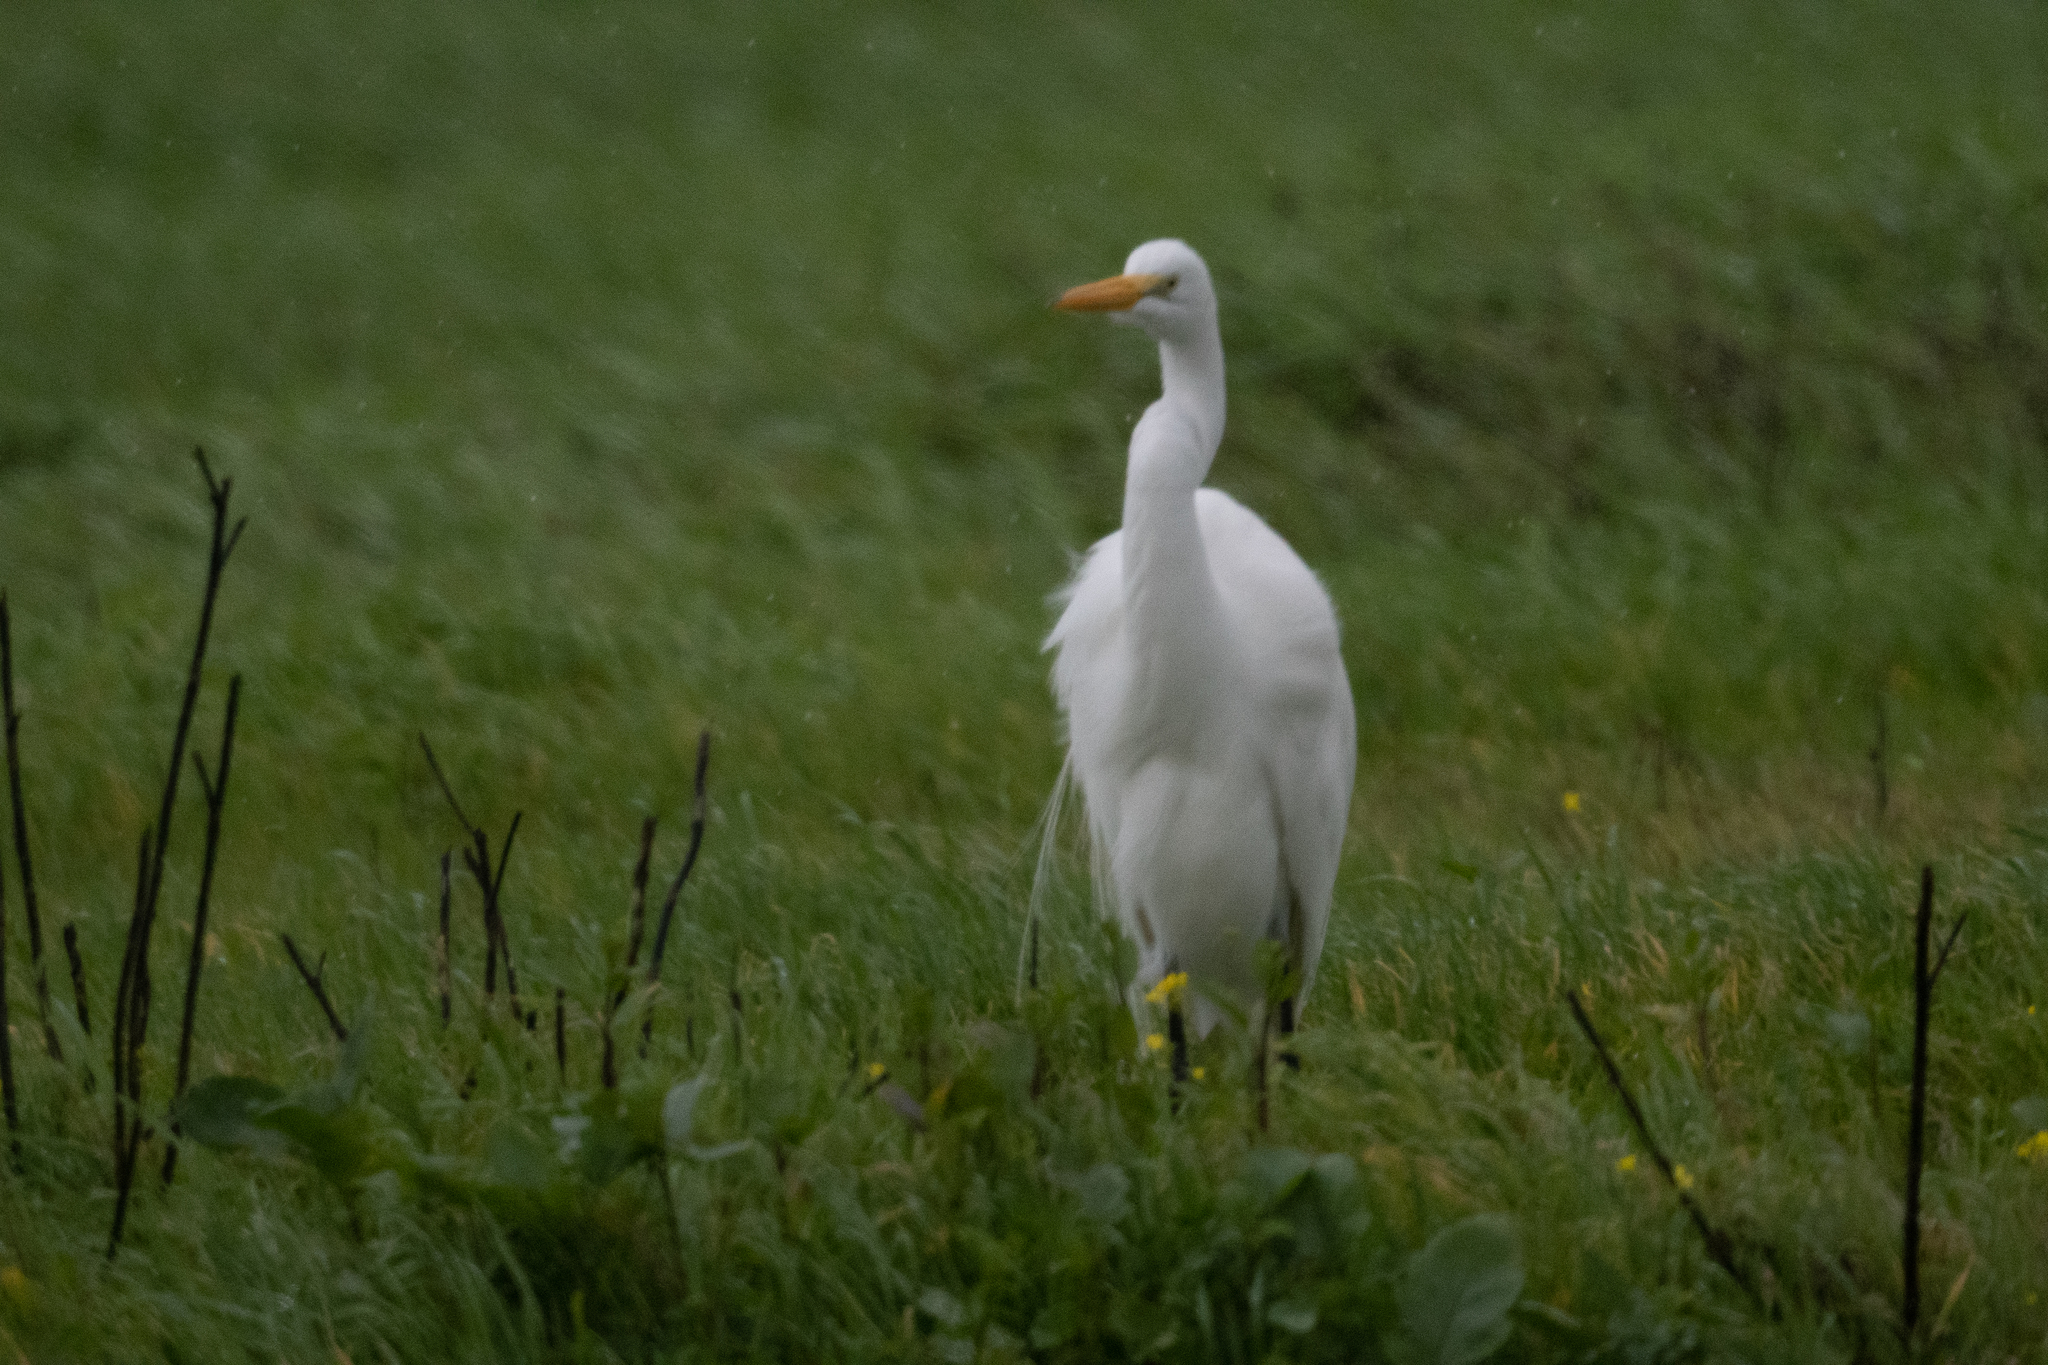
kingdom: Animalia
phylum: Chordata
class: Aves
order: Pelecaniformes
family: Ardeidae
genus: Bubulcus
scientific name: Bubulcus ibis
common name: Cattle egret
